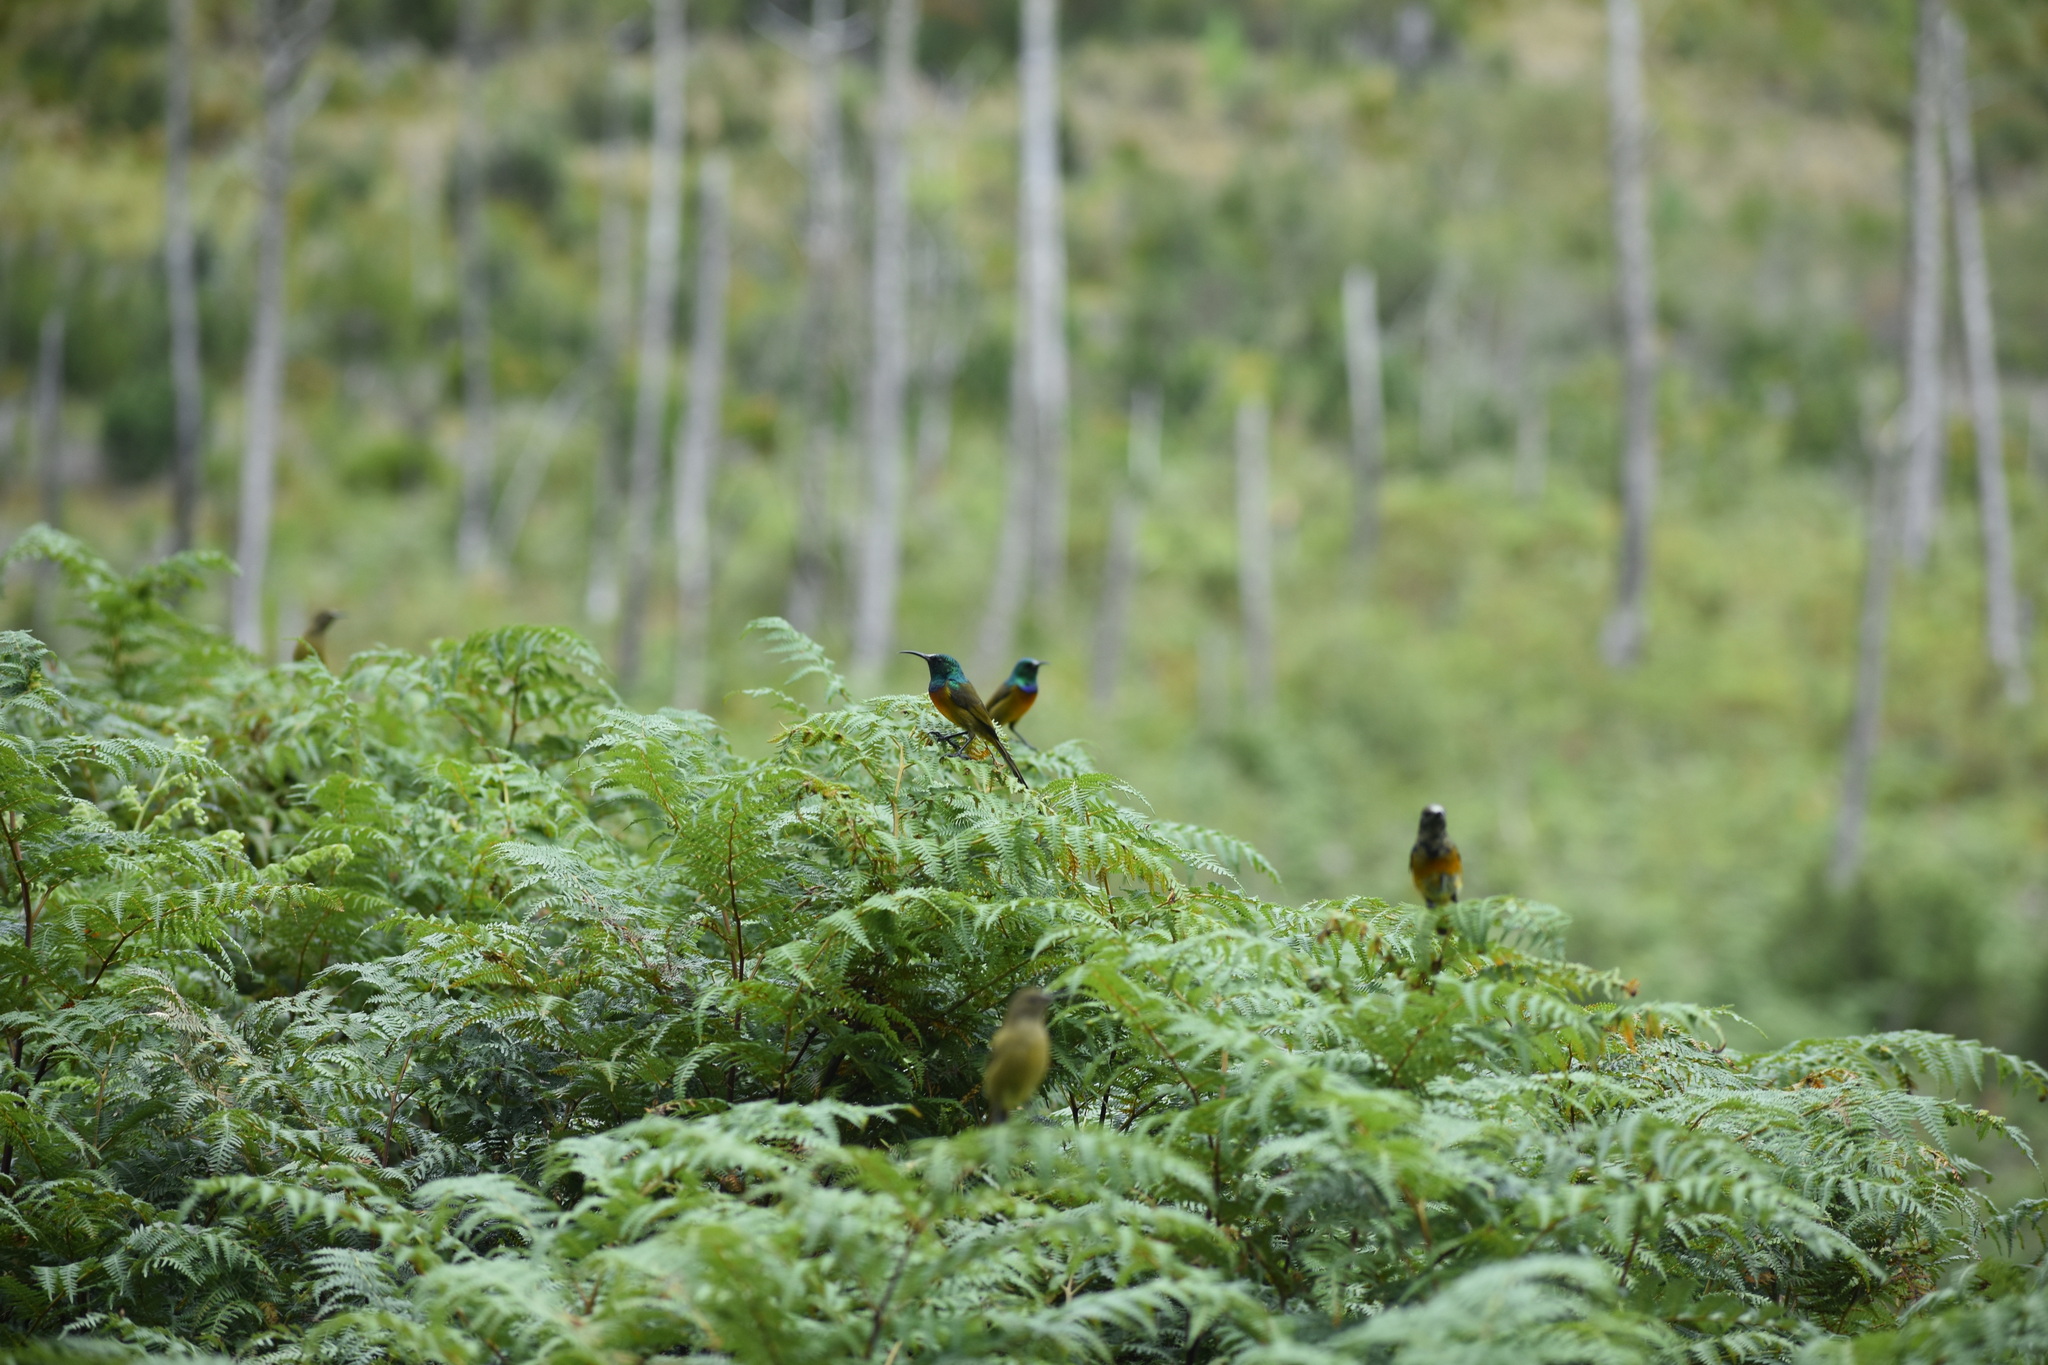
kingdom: Animalia
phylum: Chordata
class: Aves
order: Passeriformes
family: Nectariniidae
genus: Anthobaphes
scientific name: Anthobaphes violacea
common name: Orange-breasted sunbird
